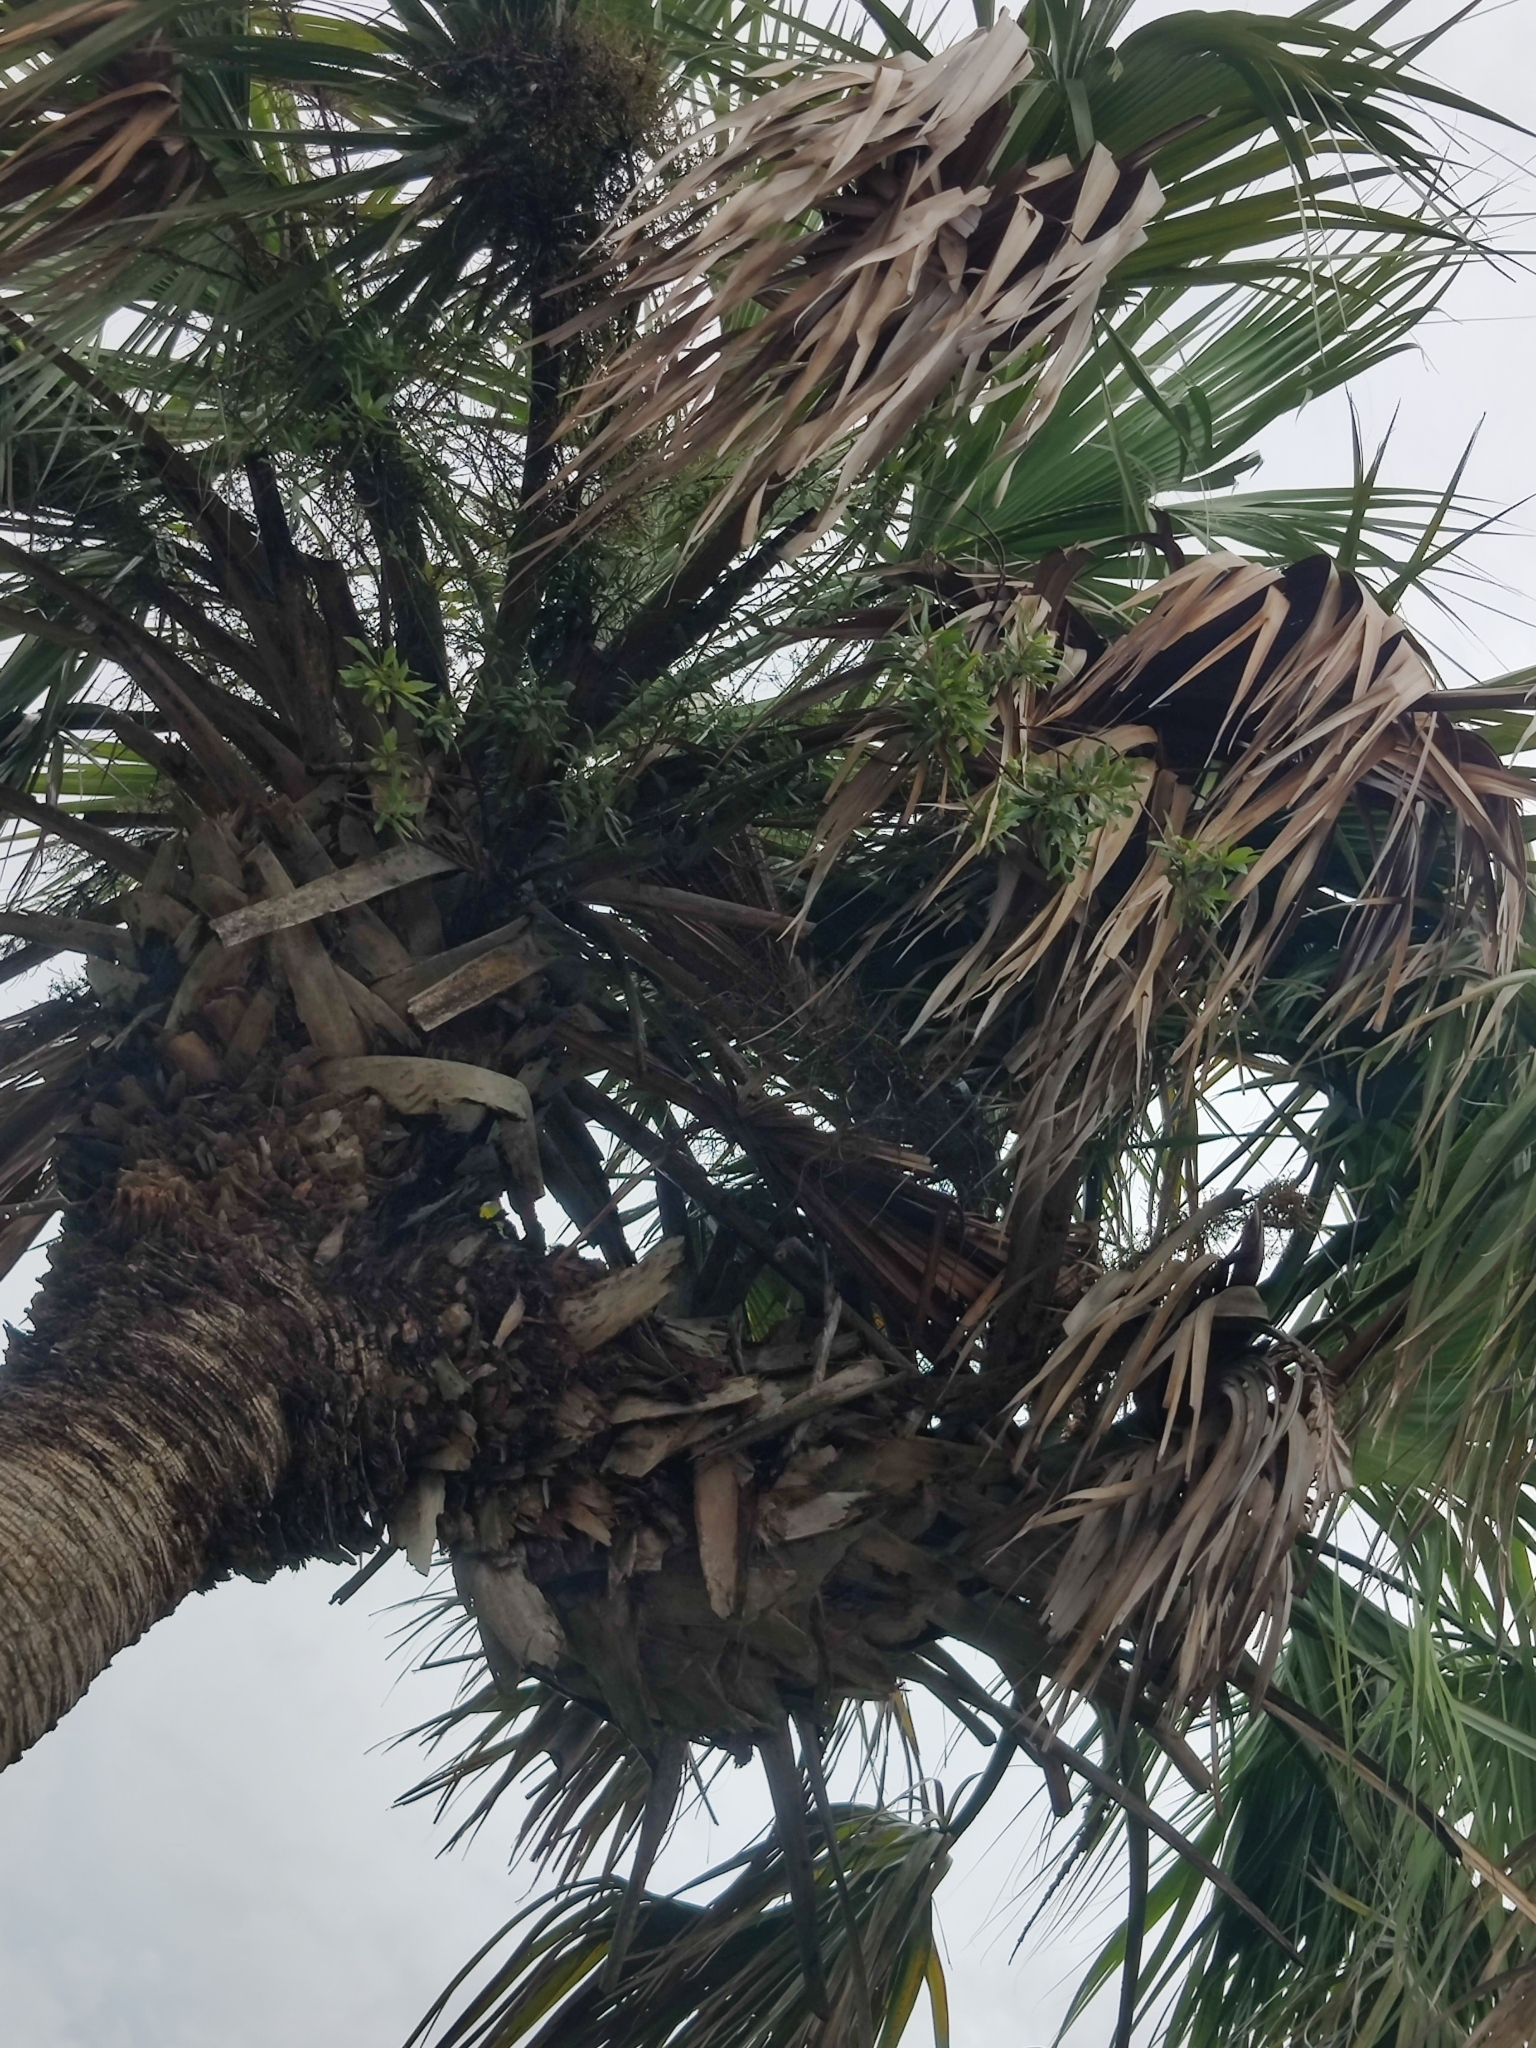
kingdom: Plantae
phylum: Tracheophyta
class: Liliopsida
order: Arecales
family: Arecaceae
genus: Sabal
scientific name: Sabal palmetto
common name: Blue palmetto
